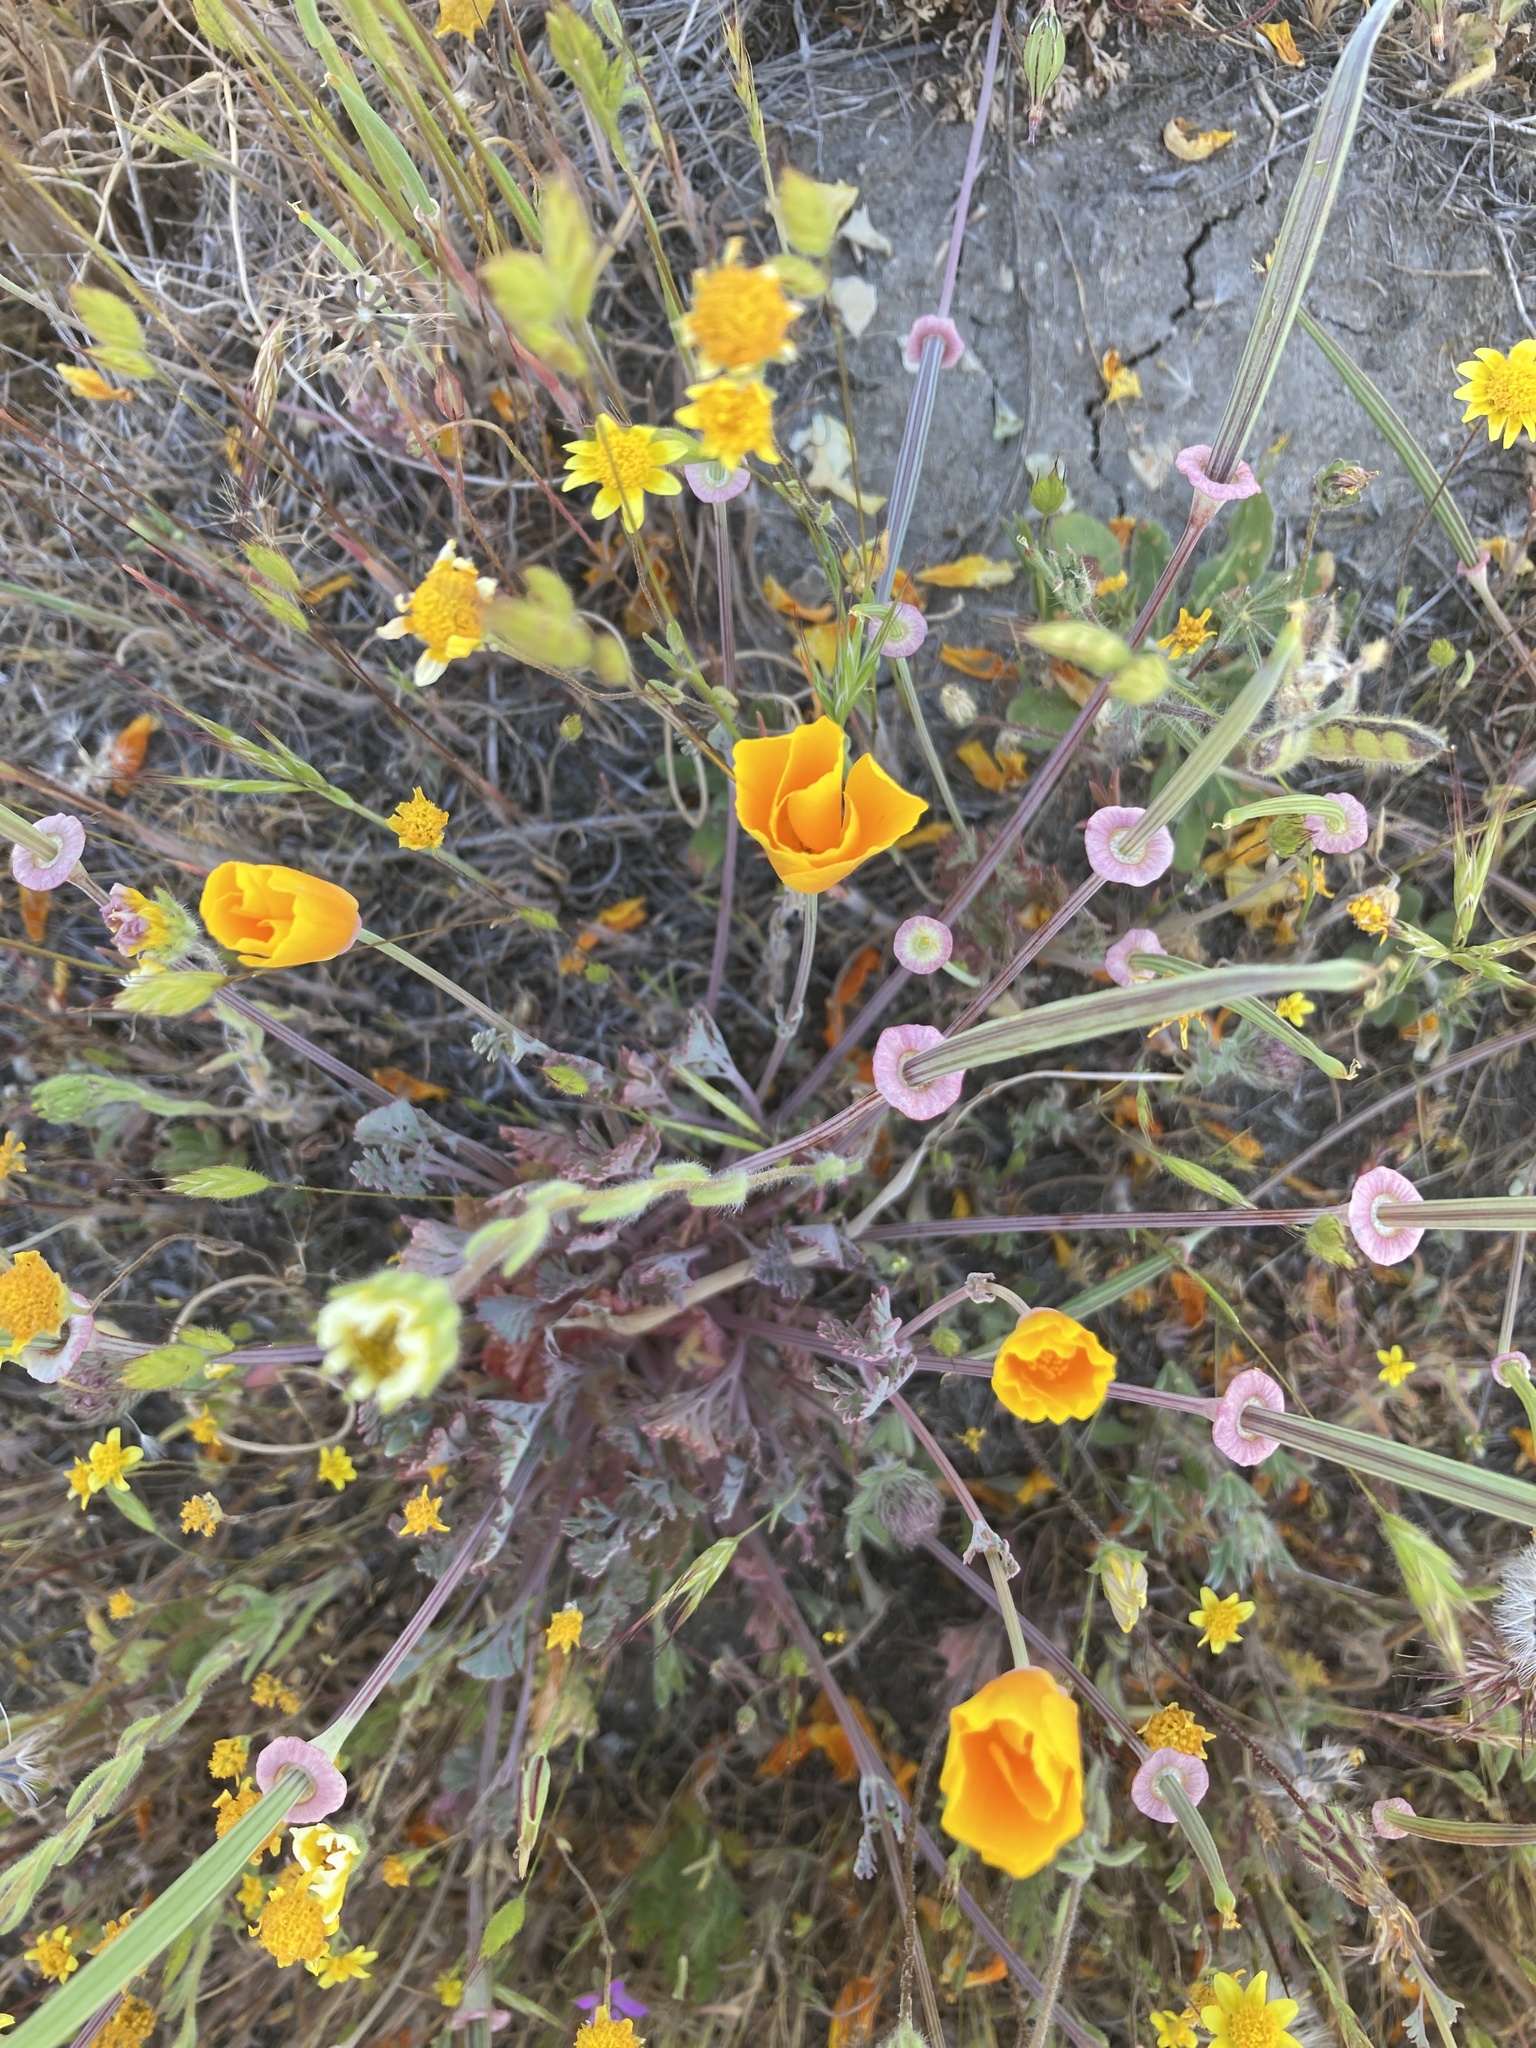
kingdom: Plantae
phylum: Tracheophyta
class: Magnoliopsida
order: Ranunculales
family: Papaveraceae
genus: Eschscholzia
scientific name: Eschscholzia californica
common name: California poppy
